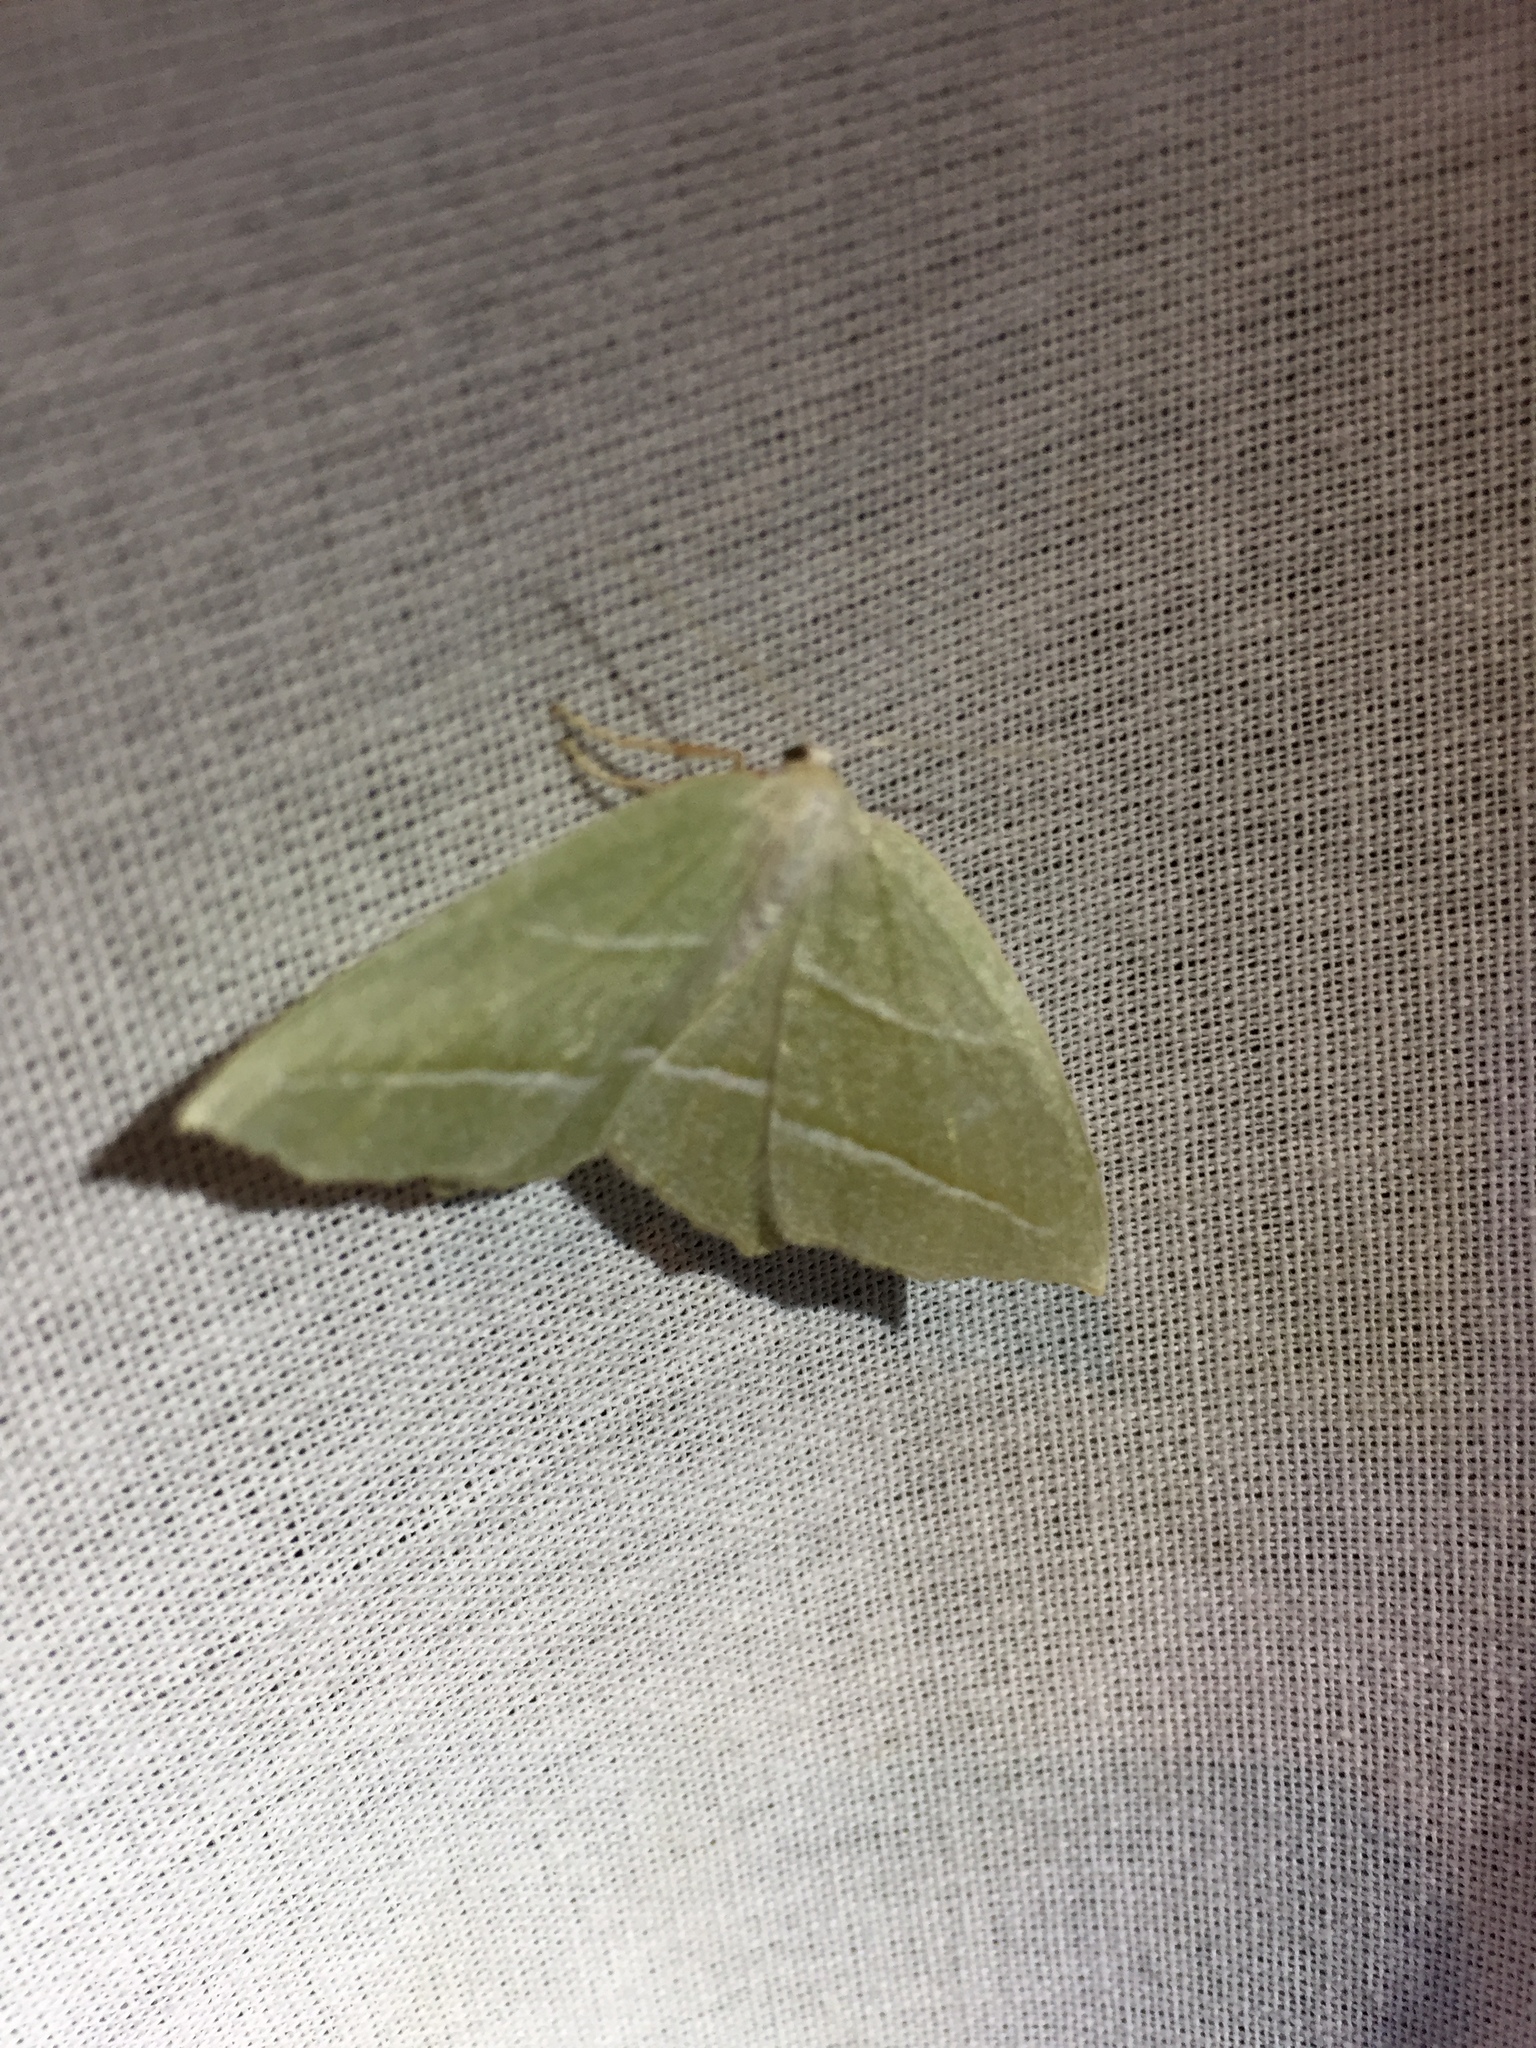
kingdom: Animalia
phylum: Arthropoda
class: Insecta
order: Lepidoptera
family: Geometridae
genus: Campaea
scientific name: Campaea perlata
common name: Fringed looper
